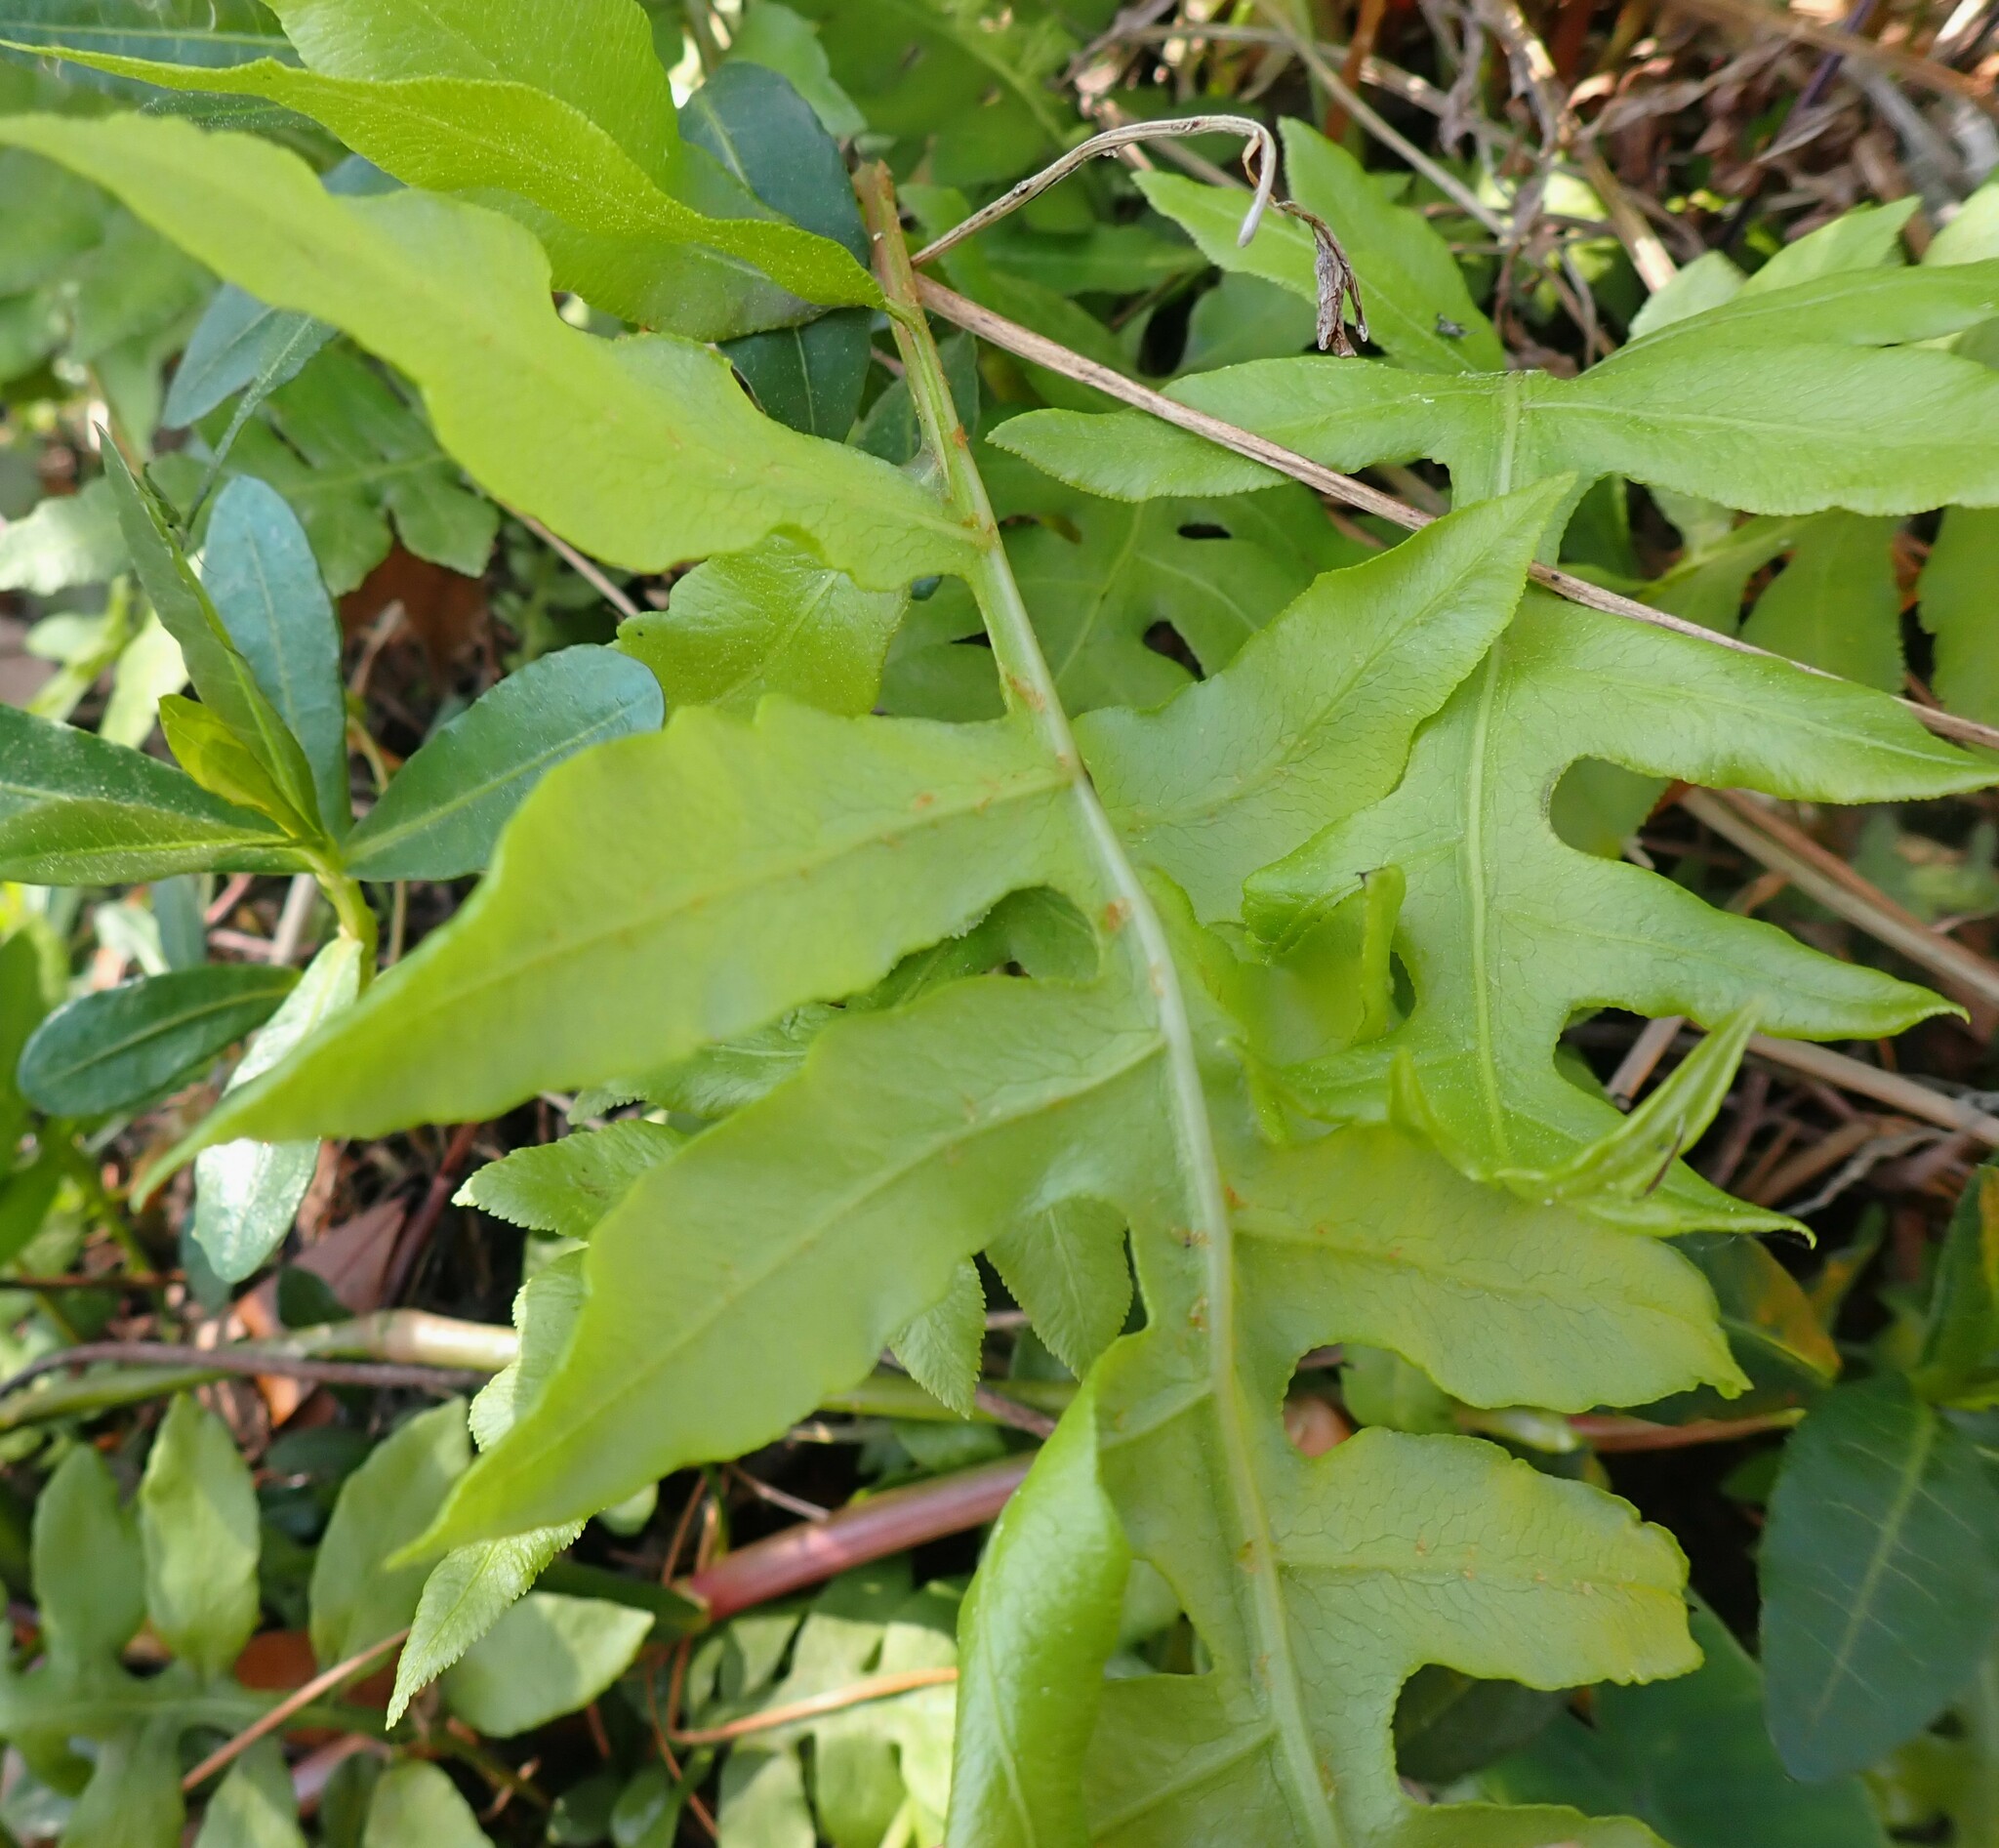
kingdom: Plantae
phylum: Tracheophyta
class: Polypodiopsida
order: Polypodiales
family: Blechnaceae
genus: Lorinseria
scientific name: Lorinseria areolata
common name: Dwarf chain fern
